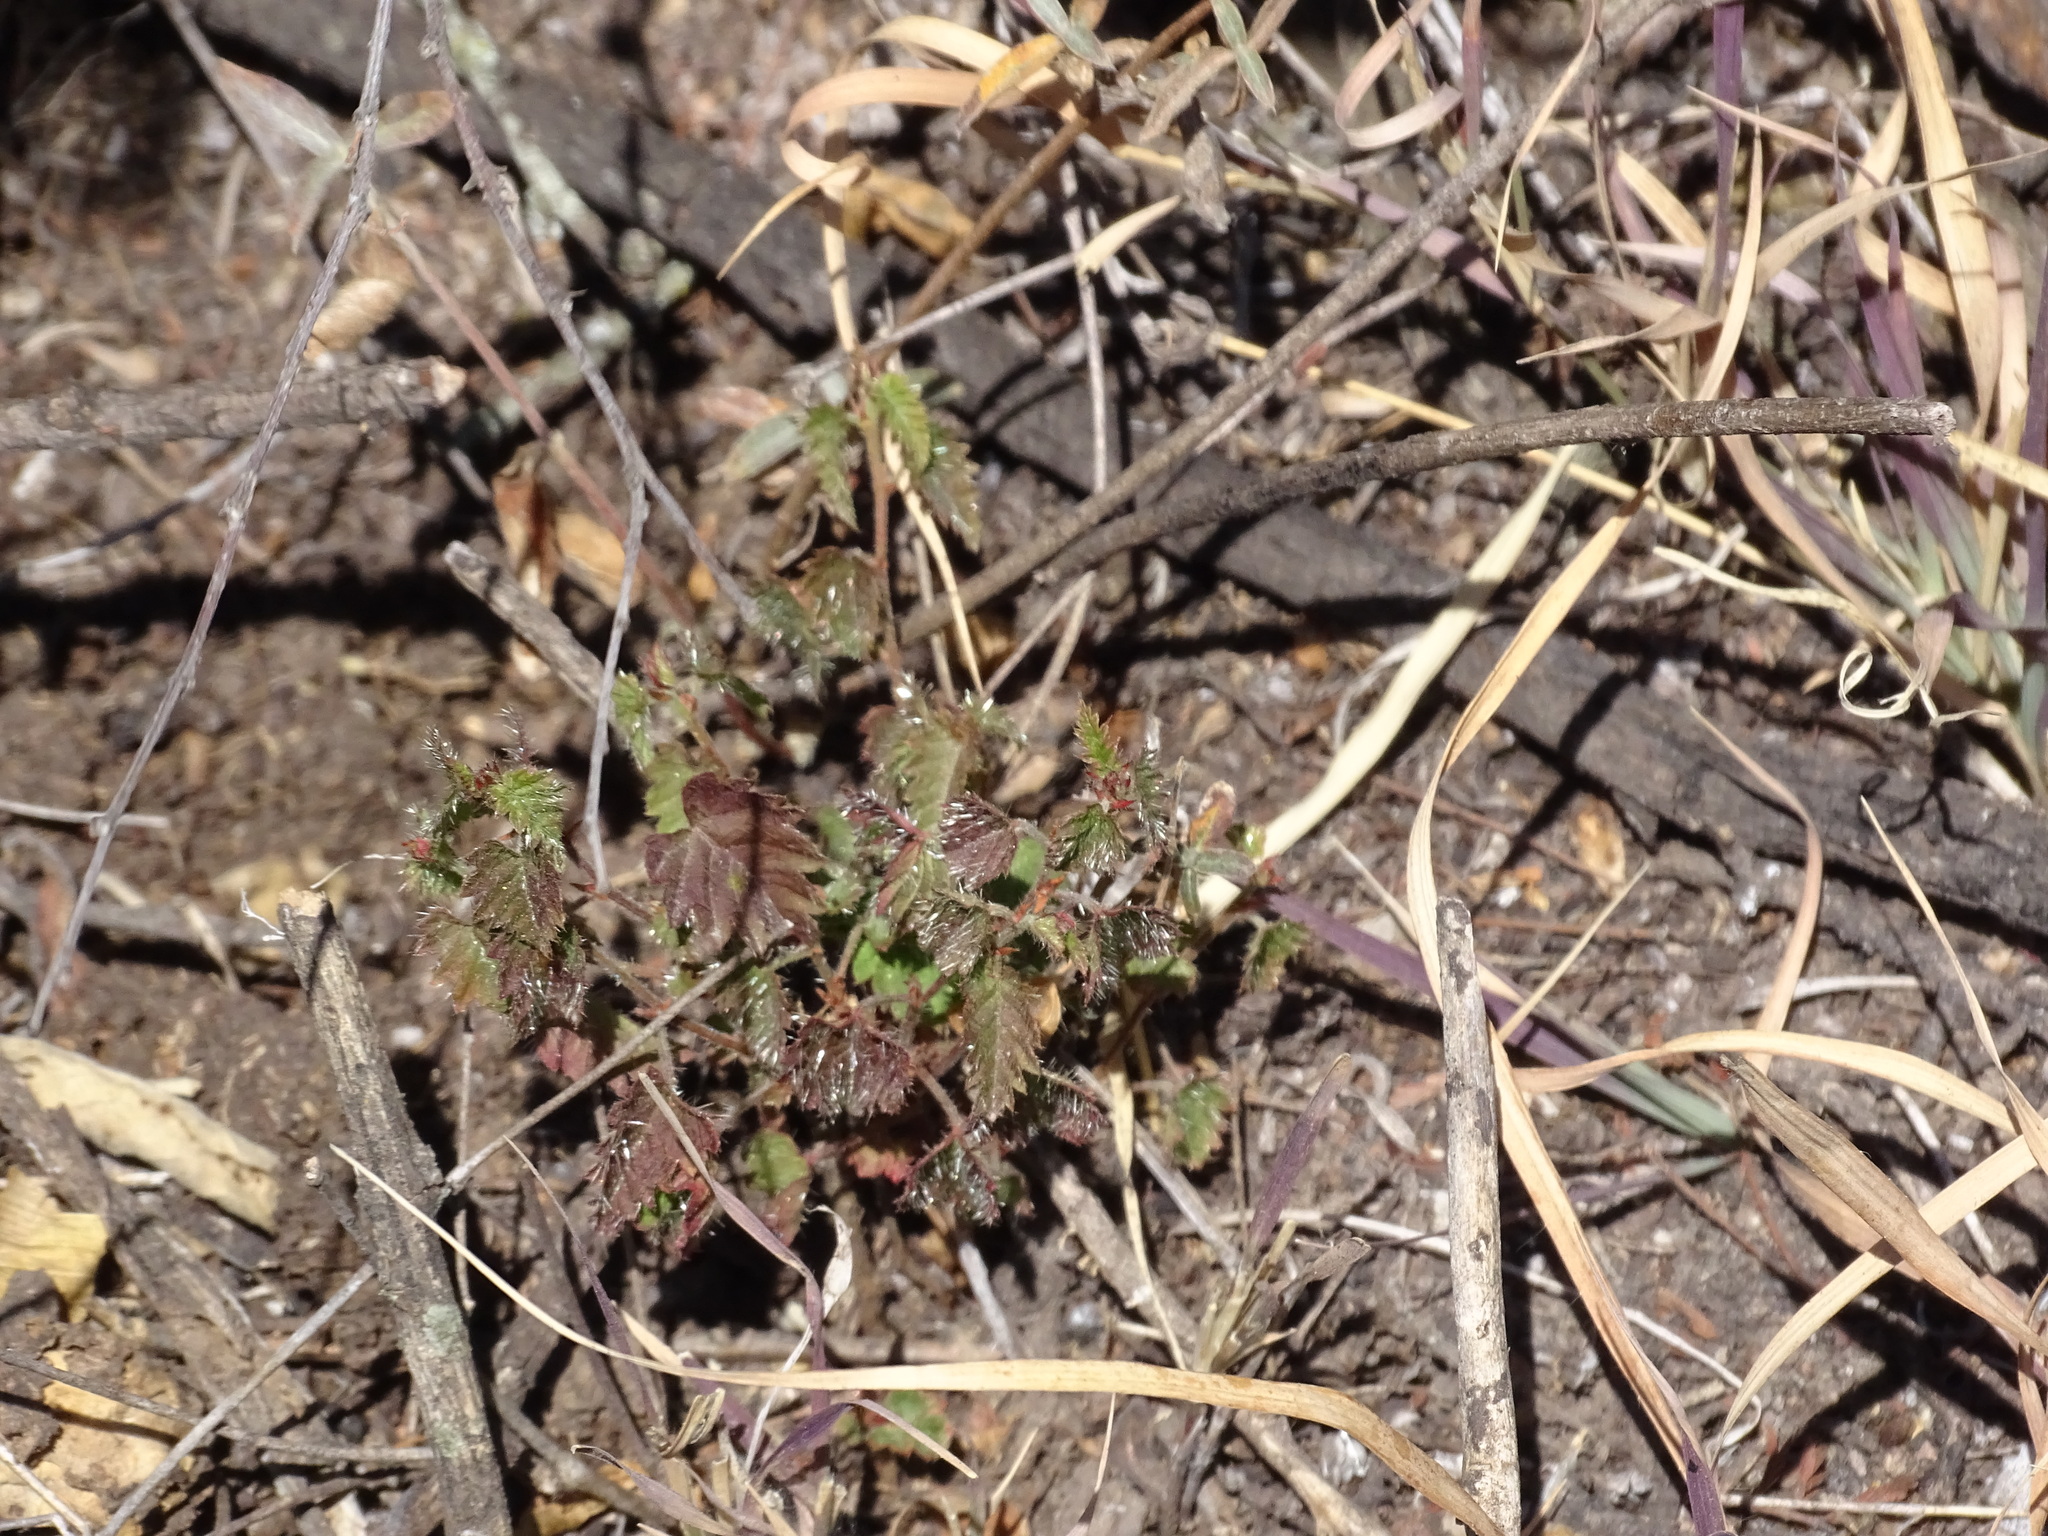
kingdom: Plantae
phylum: Tracheophyta
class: Magnoliopsida
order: Malpighiales
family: Euphorbiaceae
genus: Tragia
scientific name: Tragia nepetifolia
